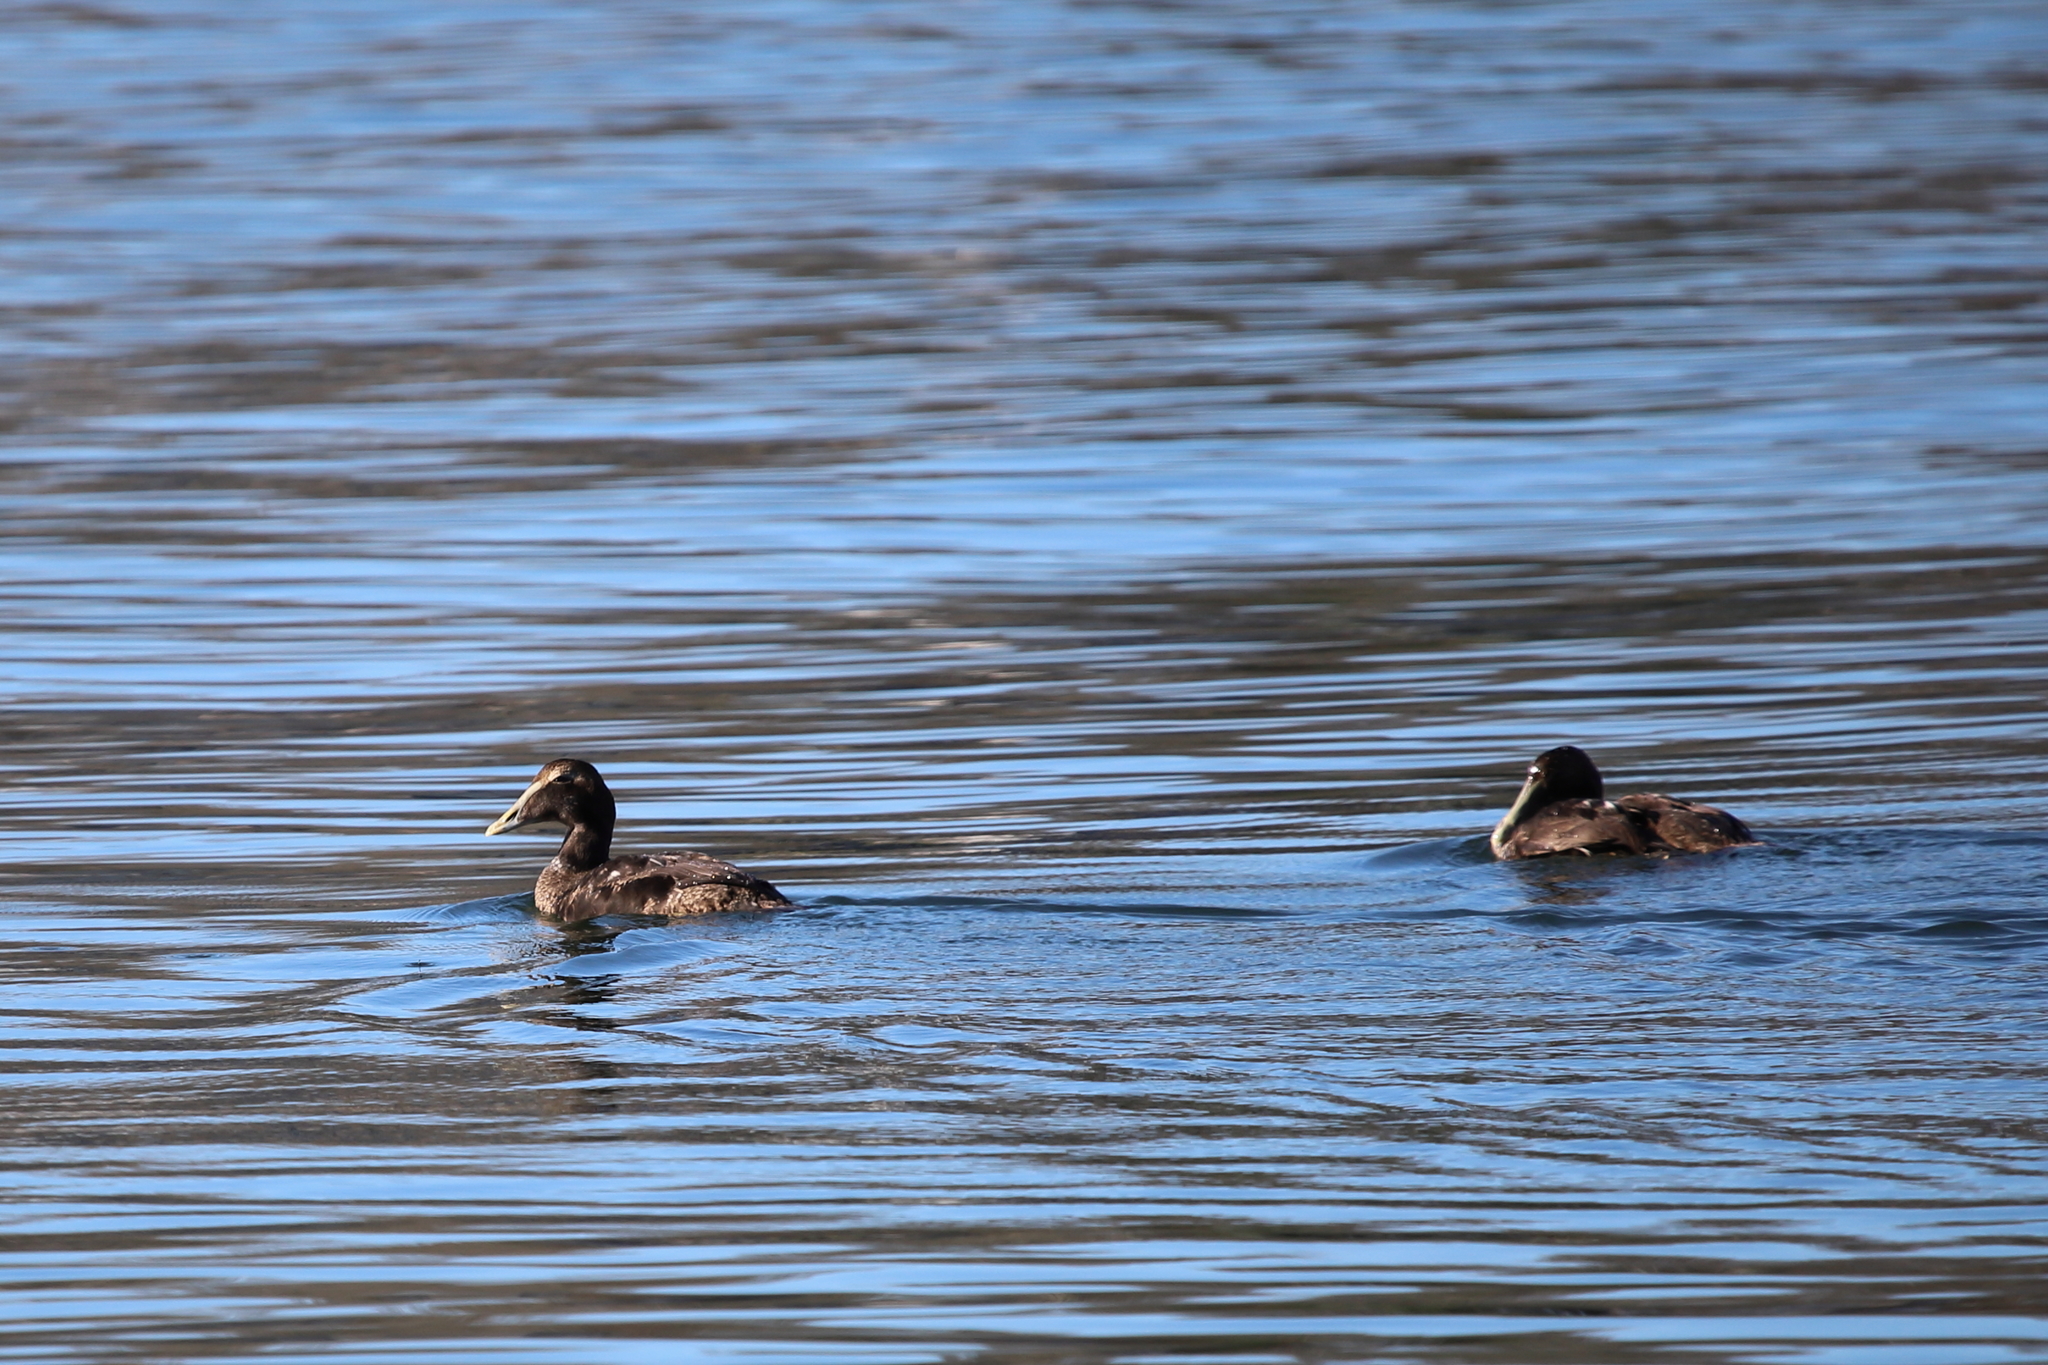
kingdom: Animalia
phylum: Chordata
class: Aves
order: Anseriformes
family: Anatidae
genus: Somateria
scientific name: Somateria mollissima
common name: Common eider
